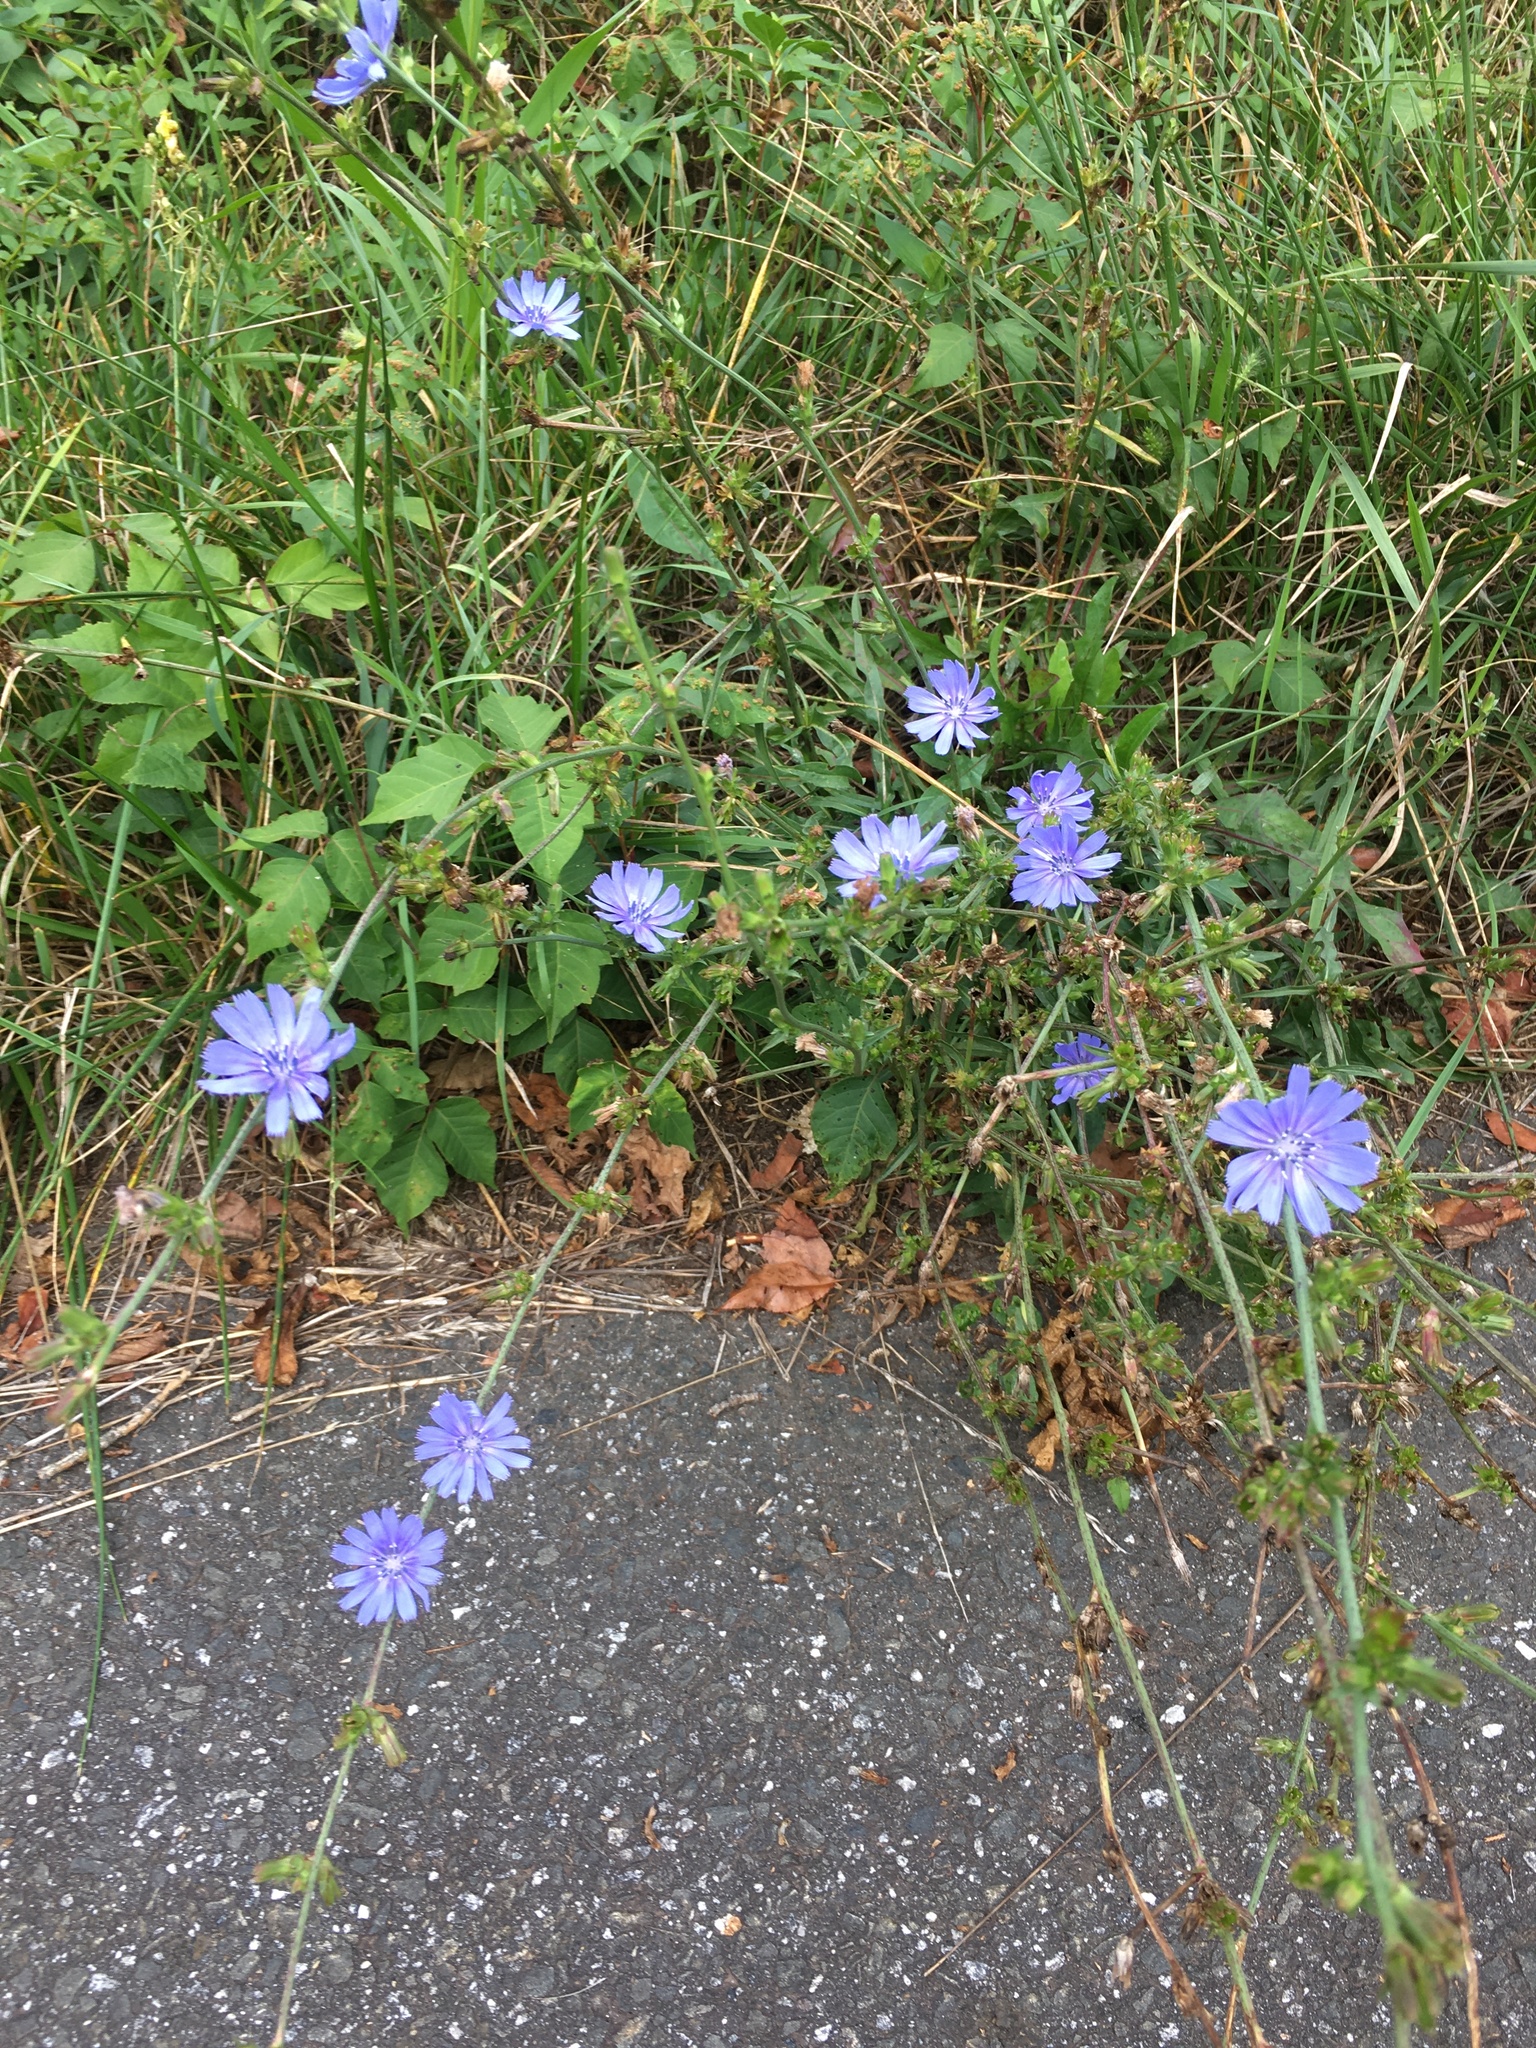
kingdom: Plantae
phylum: Tracheophyta
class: Magnoliopsida
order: Asterales
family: Asteraceae
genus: Cichorium
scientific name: Cichorium intybus
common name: Chicory
